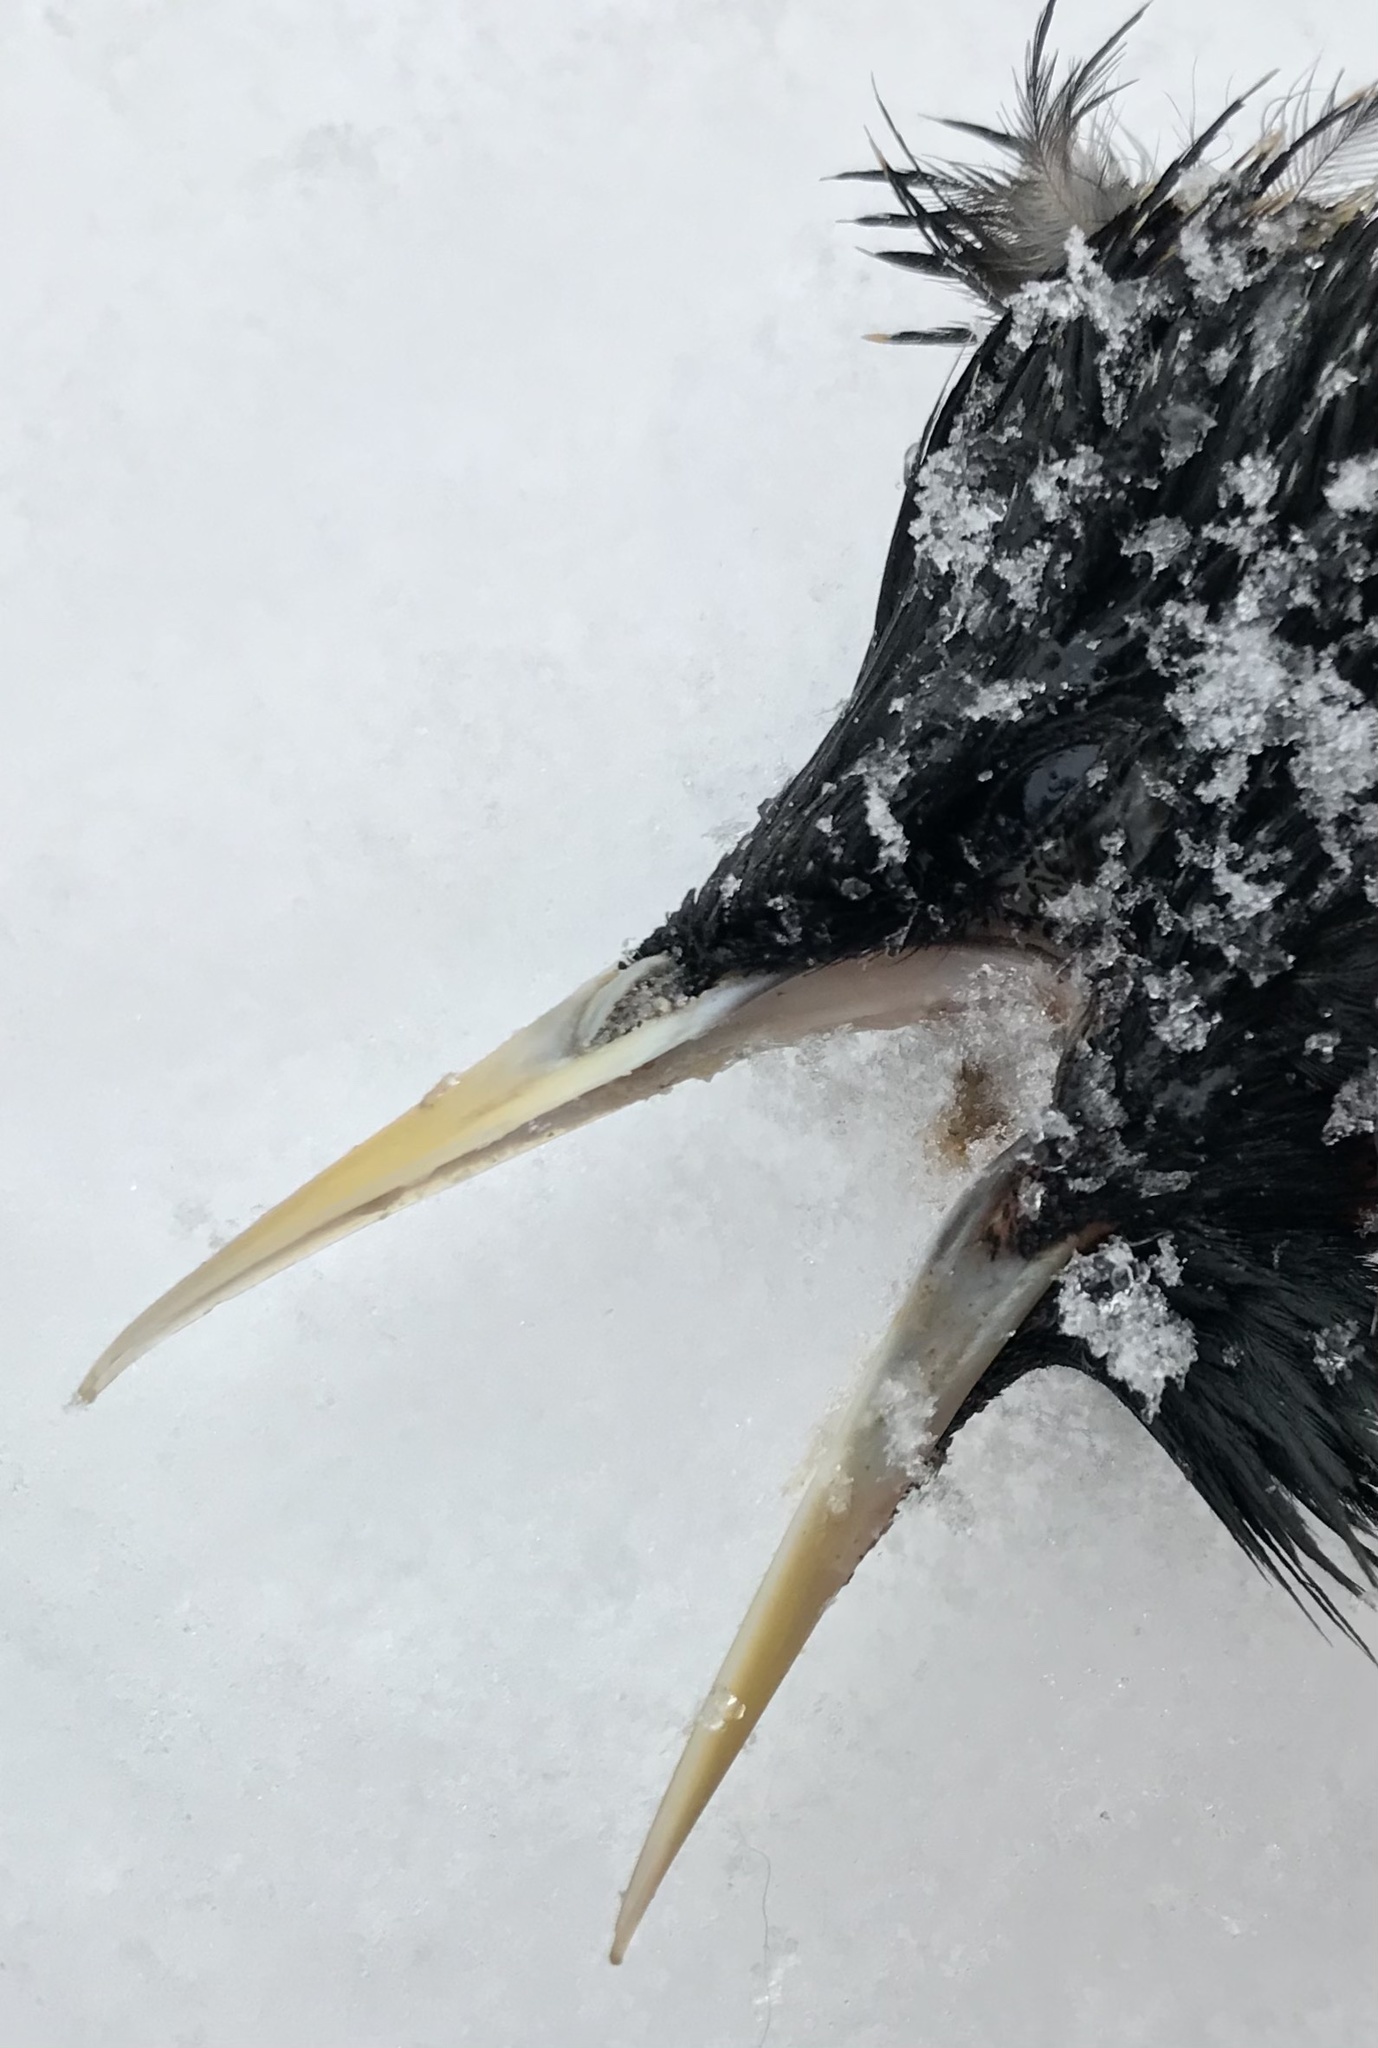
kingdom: Animalia
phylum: Chordata
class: Aves
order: Passeriformes
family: Sturnidae
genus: Sturnus
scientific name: Sturnus vulgaris
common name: Common starling
